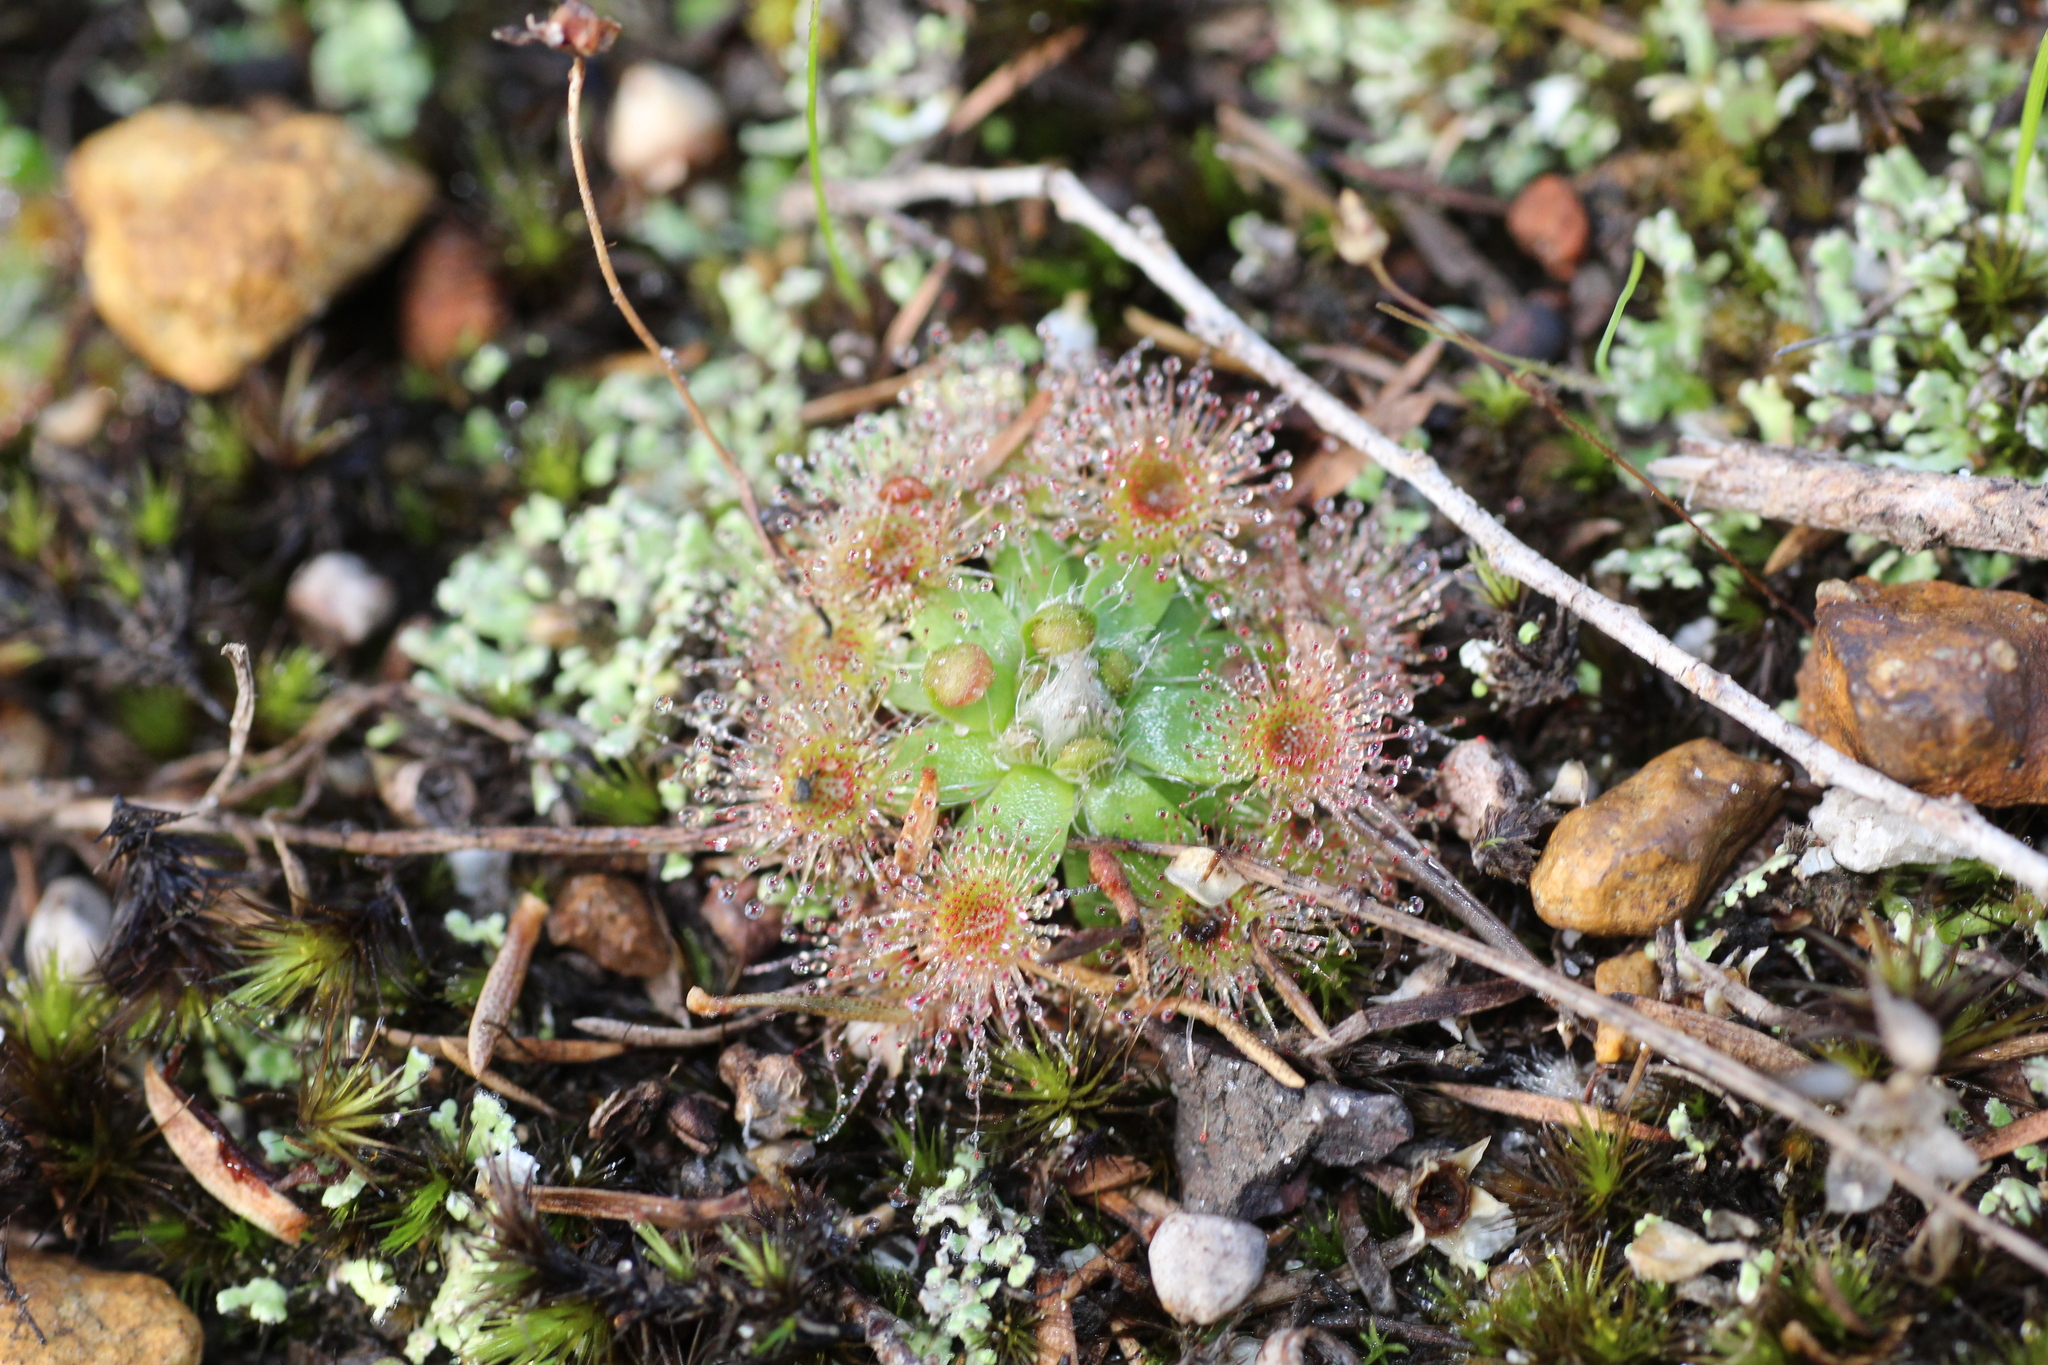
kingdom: Plantae
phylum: Tracheophyta
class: Magnoliopsida
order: Caryophyllales
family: Droseraceae
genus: Drosera
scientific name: Drosera pulchella
